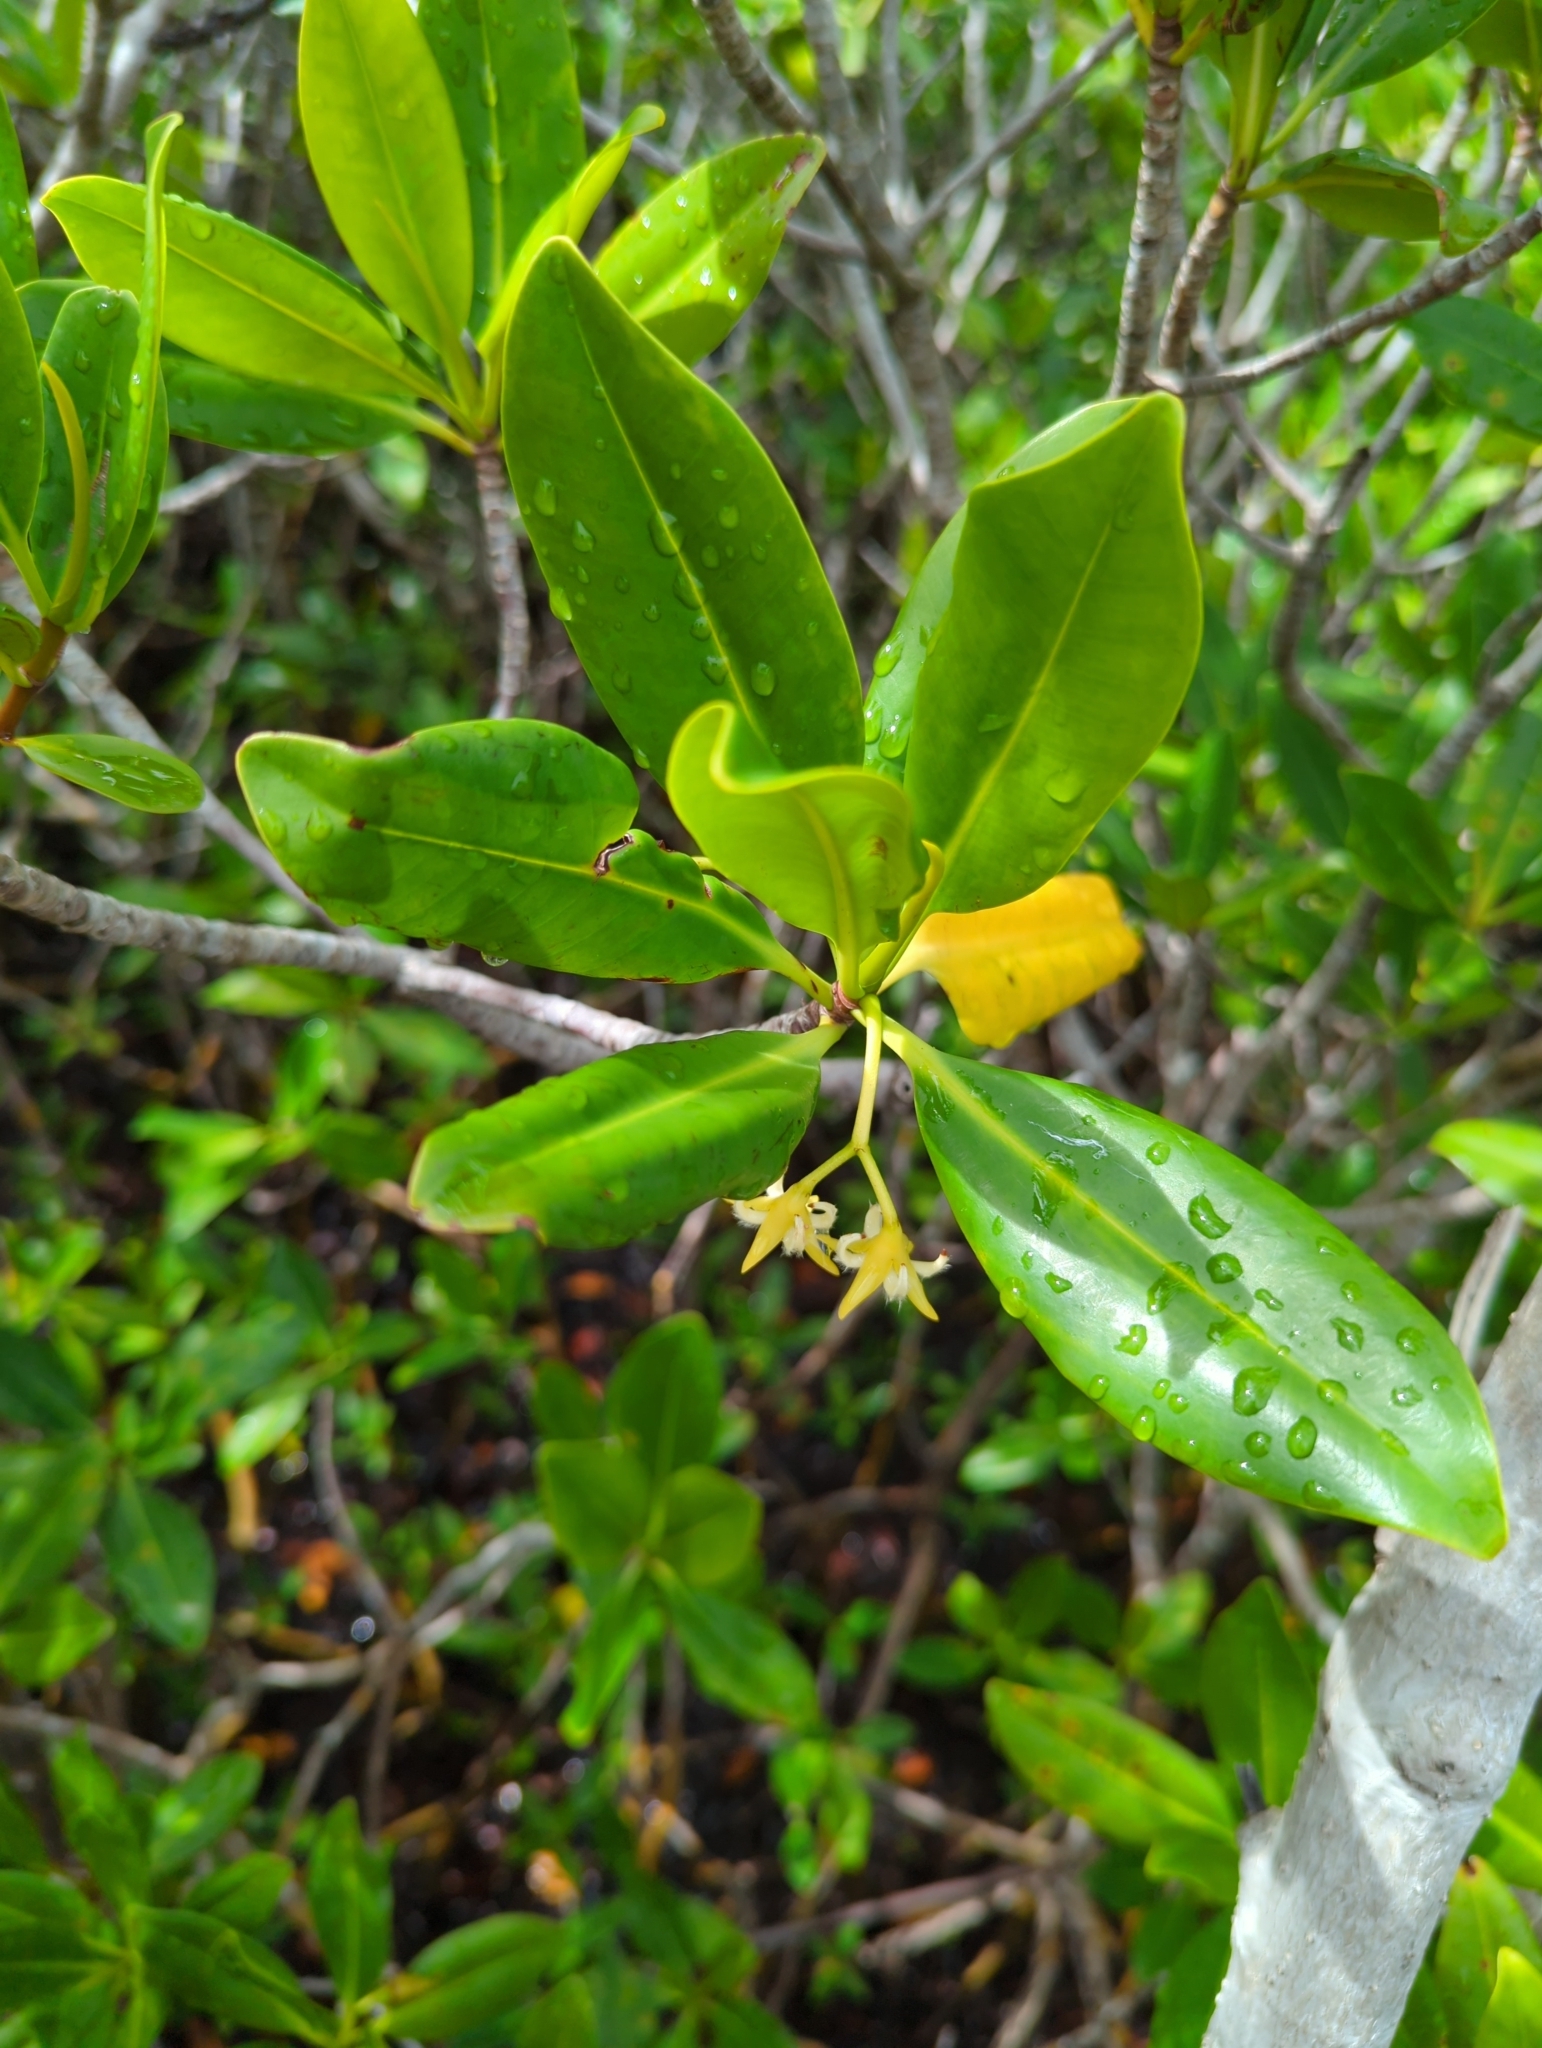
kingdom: Plantae
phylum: Tracheophyta
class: Magnoliopsida
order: Malpighiales
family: Rhizophoraceae
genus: Rhizophora
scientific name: Rhizophora mangle
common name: Red mangrove
